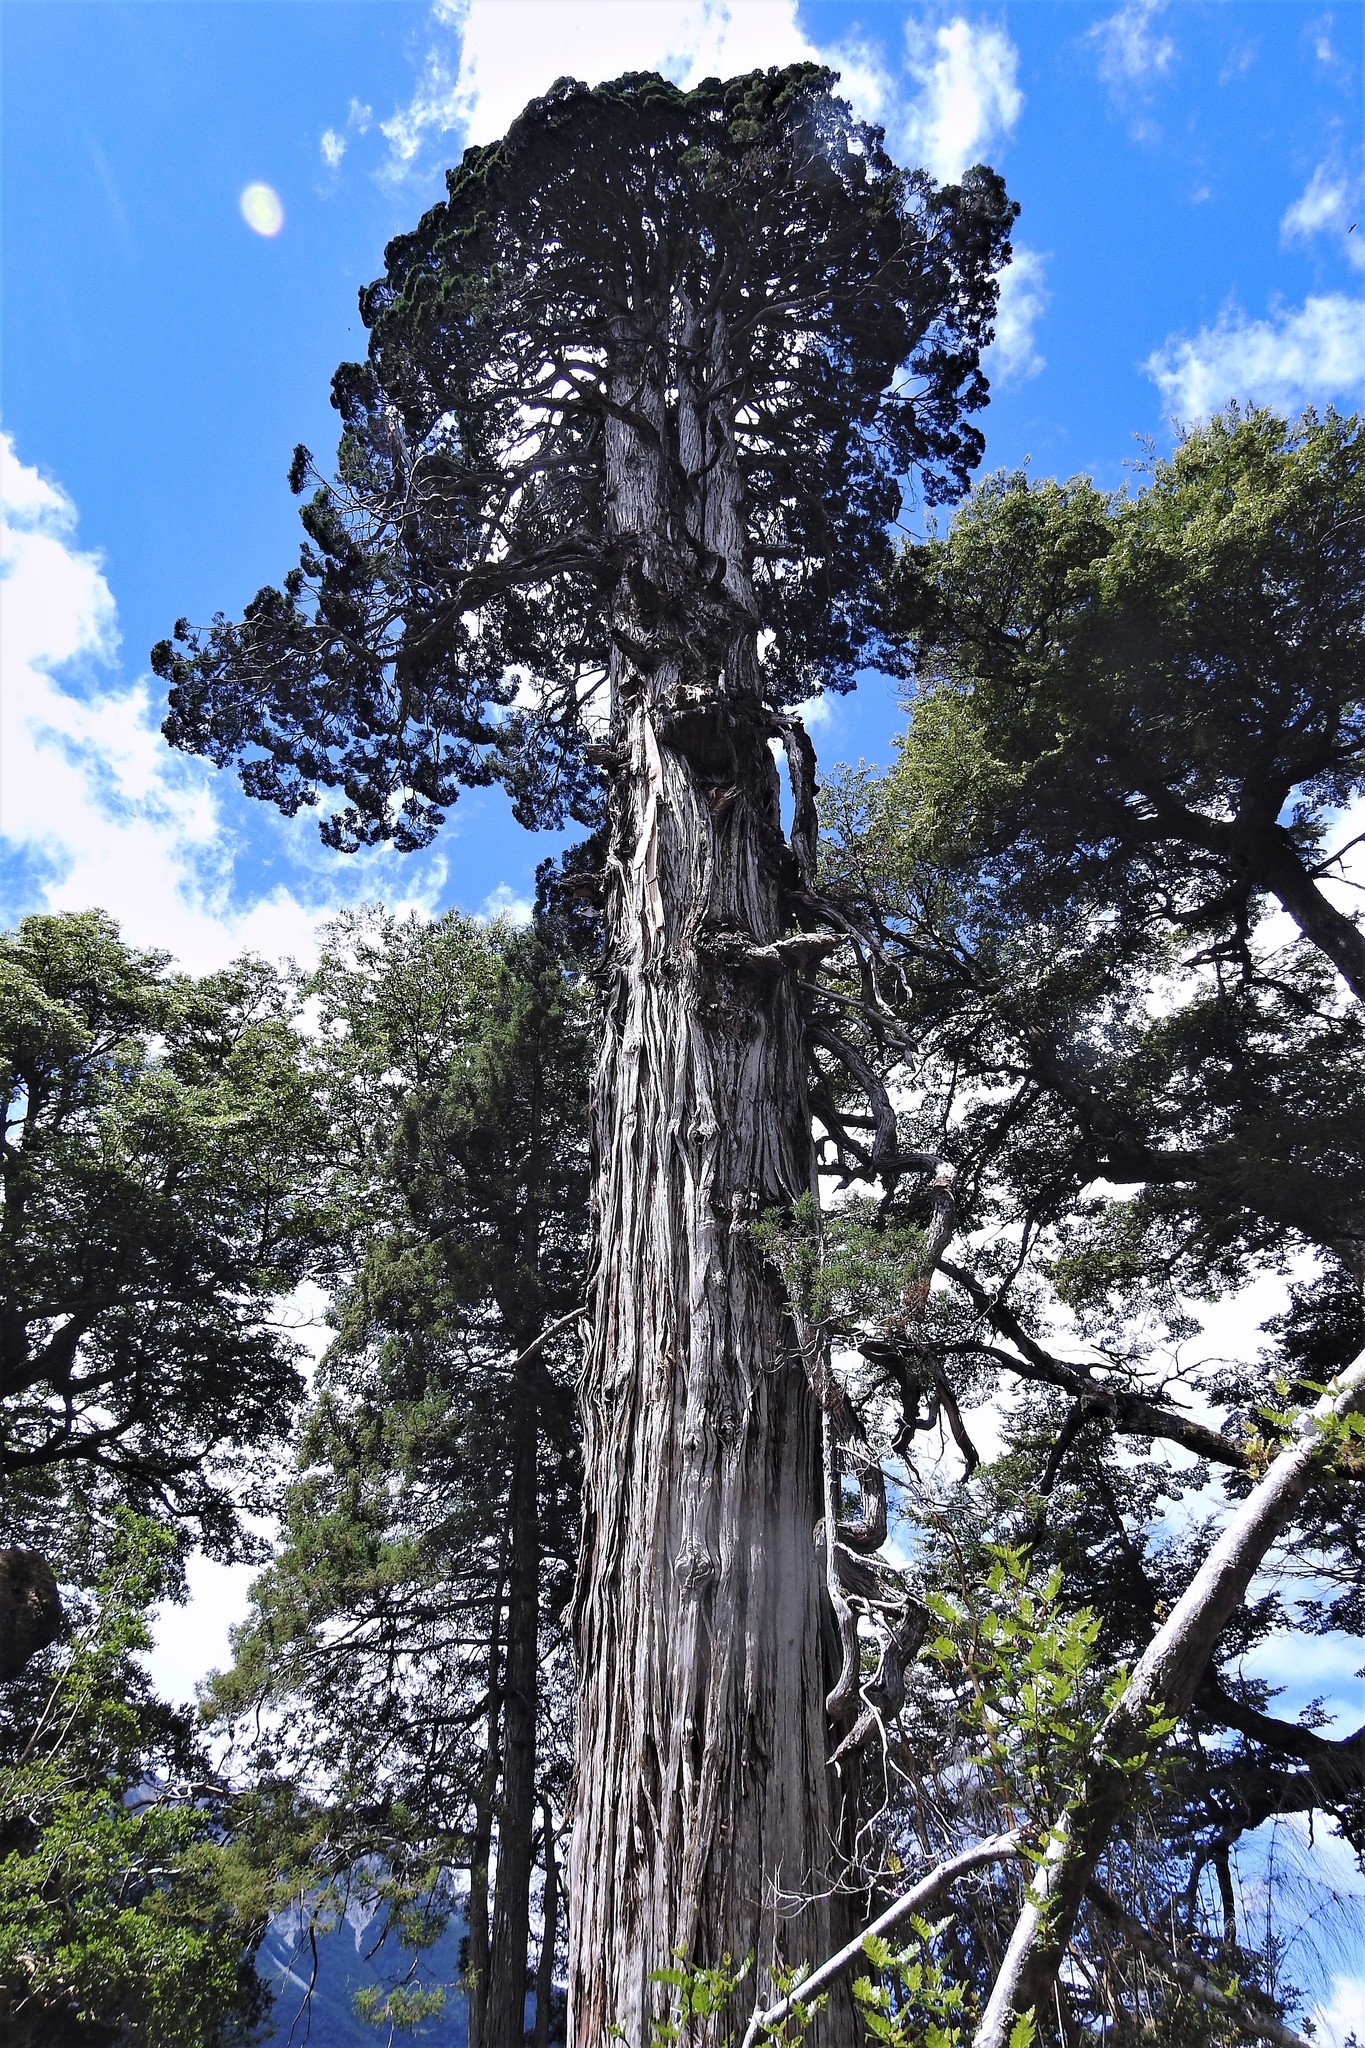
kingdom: Plantae
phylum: Tracheophyta
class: Pinopsida
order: Pinales
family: Cupressaceae
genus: Fitzroya
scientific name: Fitzroya cupressoides
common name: Patagonian cypress
